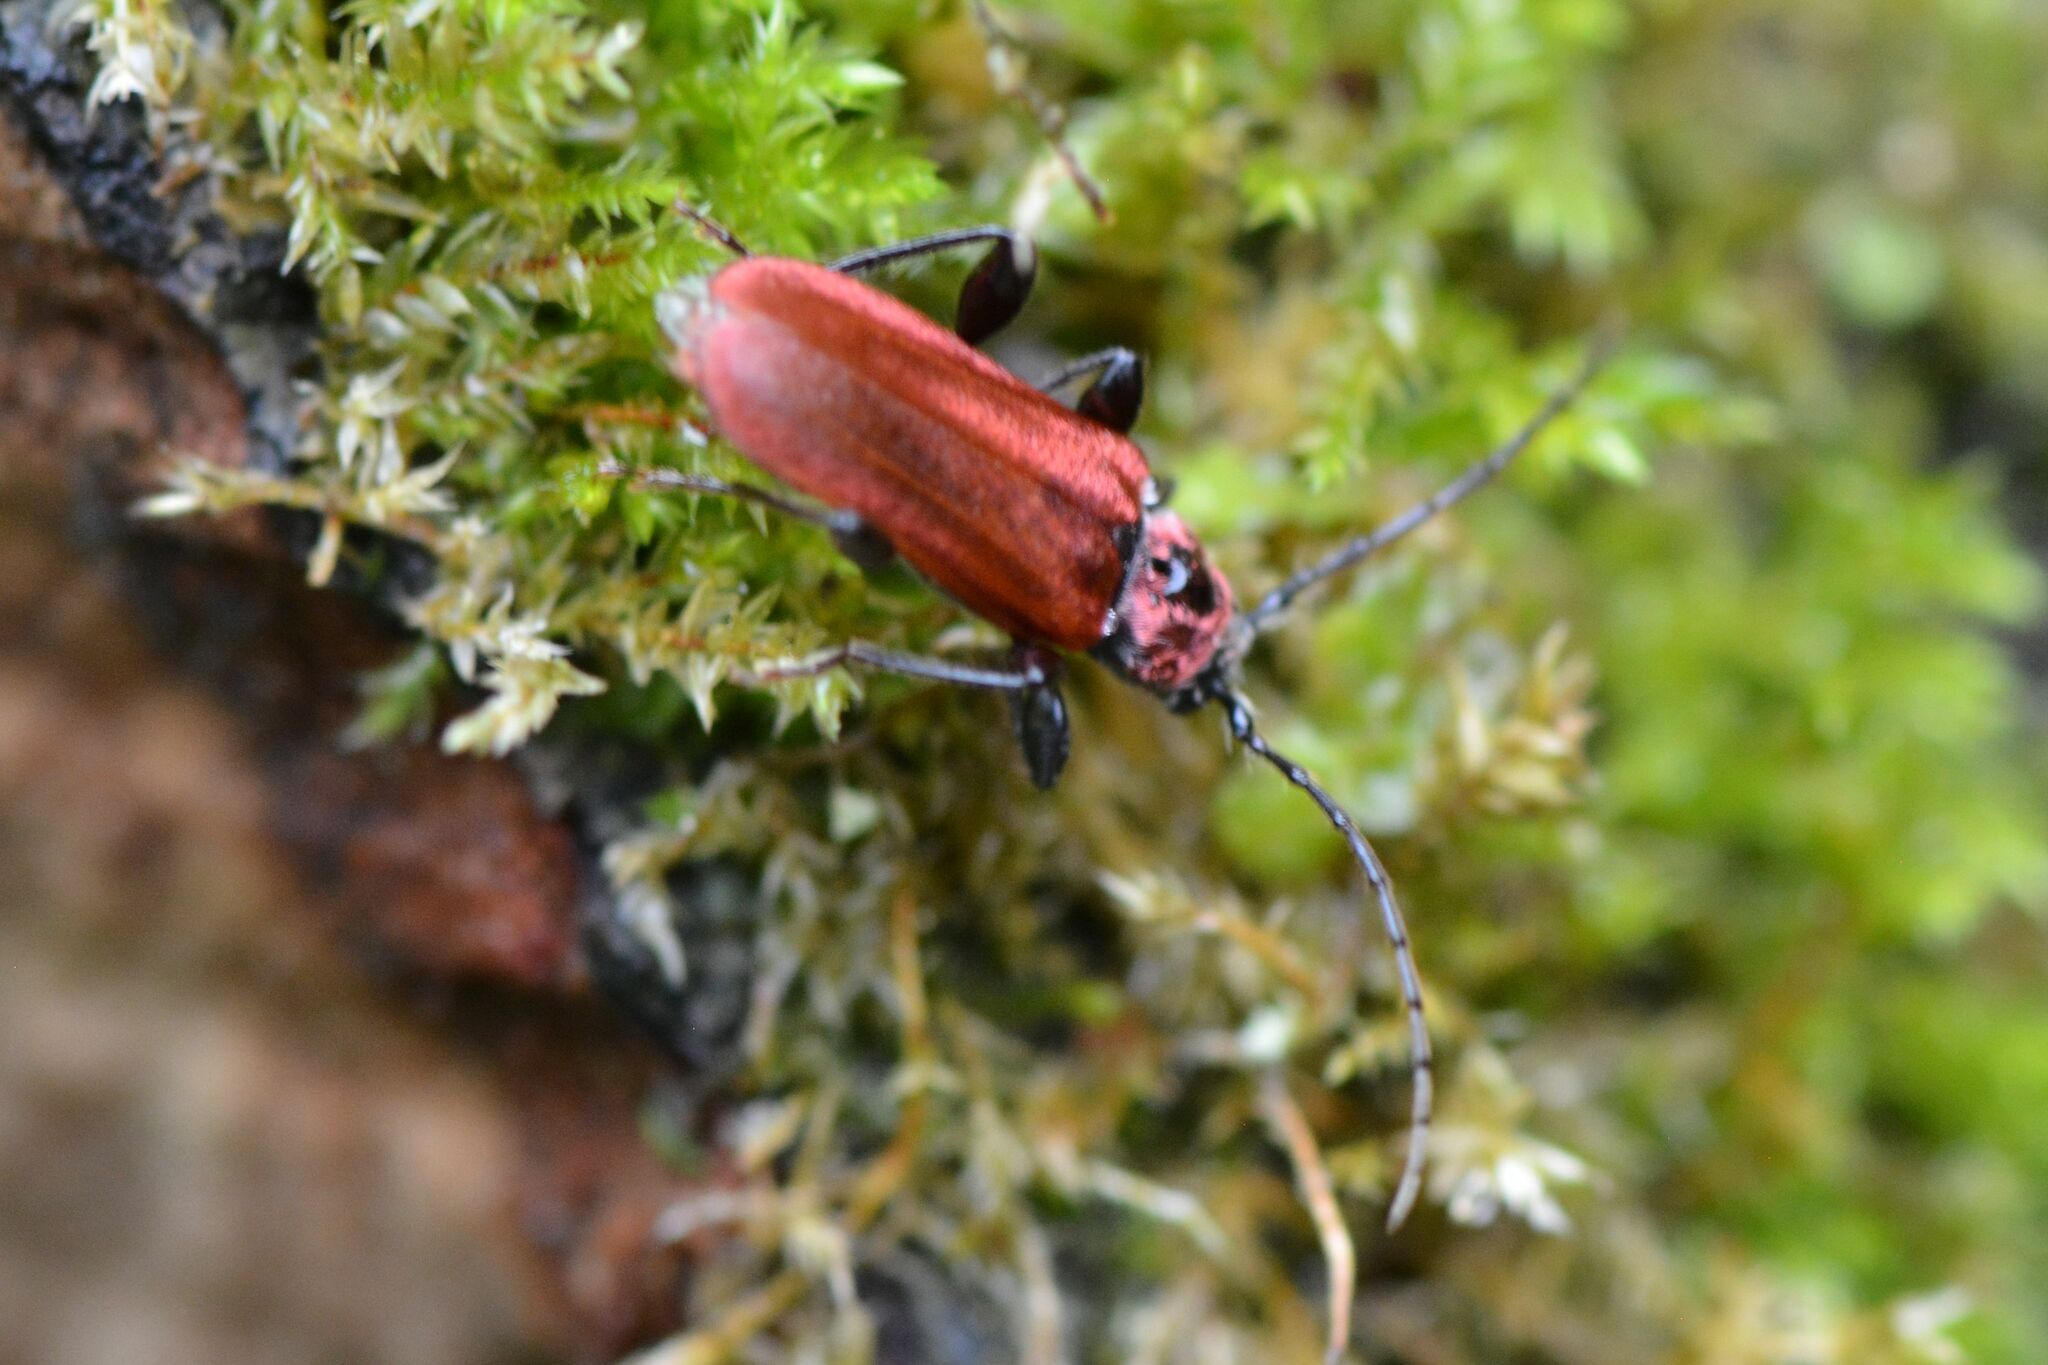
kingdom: Animalia
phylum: Arthropoda
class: Insecta
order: Coleoptera
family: Cerambycidae
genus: Pyrrhidium
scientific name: Pyrrhidium sanguineum
